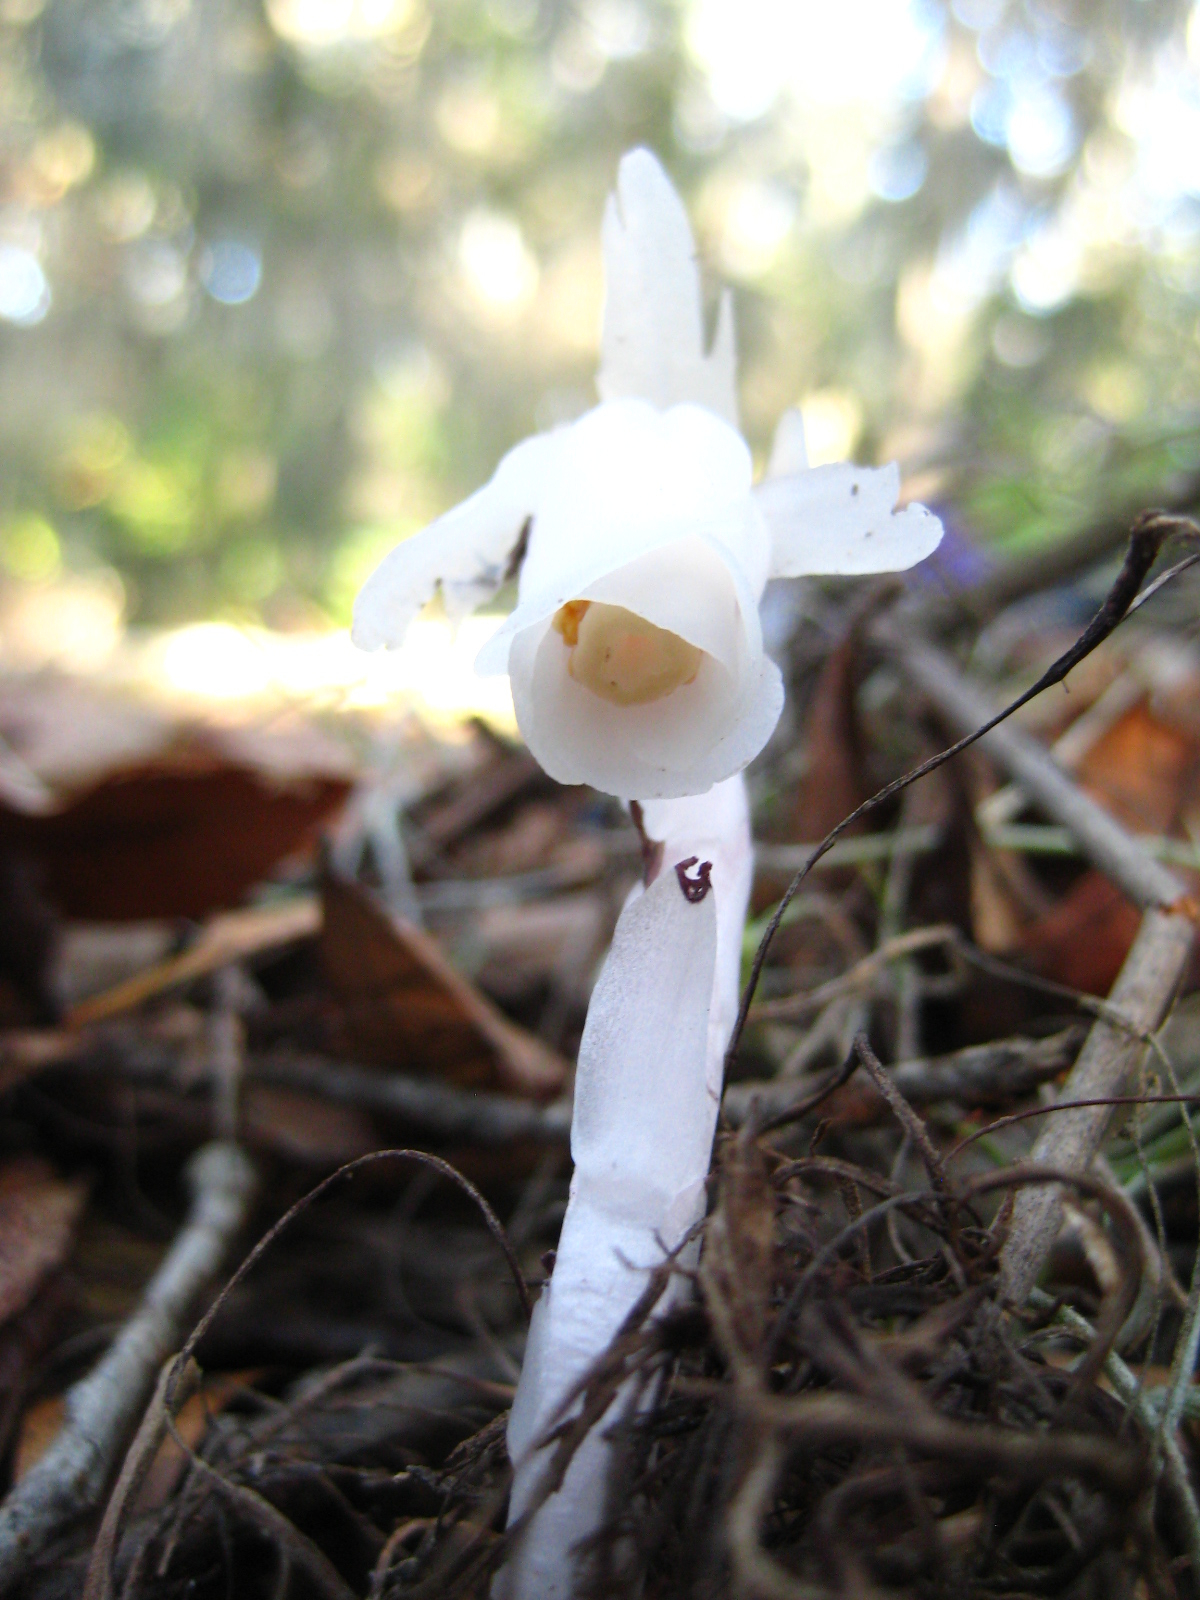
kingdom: Plantae
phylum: Tracheophyta
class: Magnoliopsida
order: Ericales
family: Ericaceae
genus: Monotropa
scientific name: Monotropa uniflora
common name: Convulsion root
